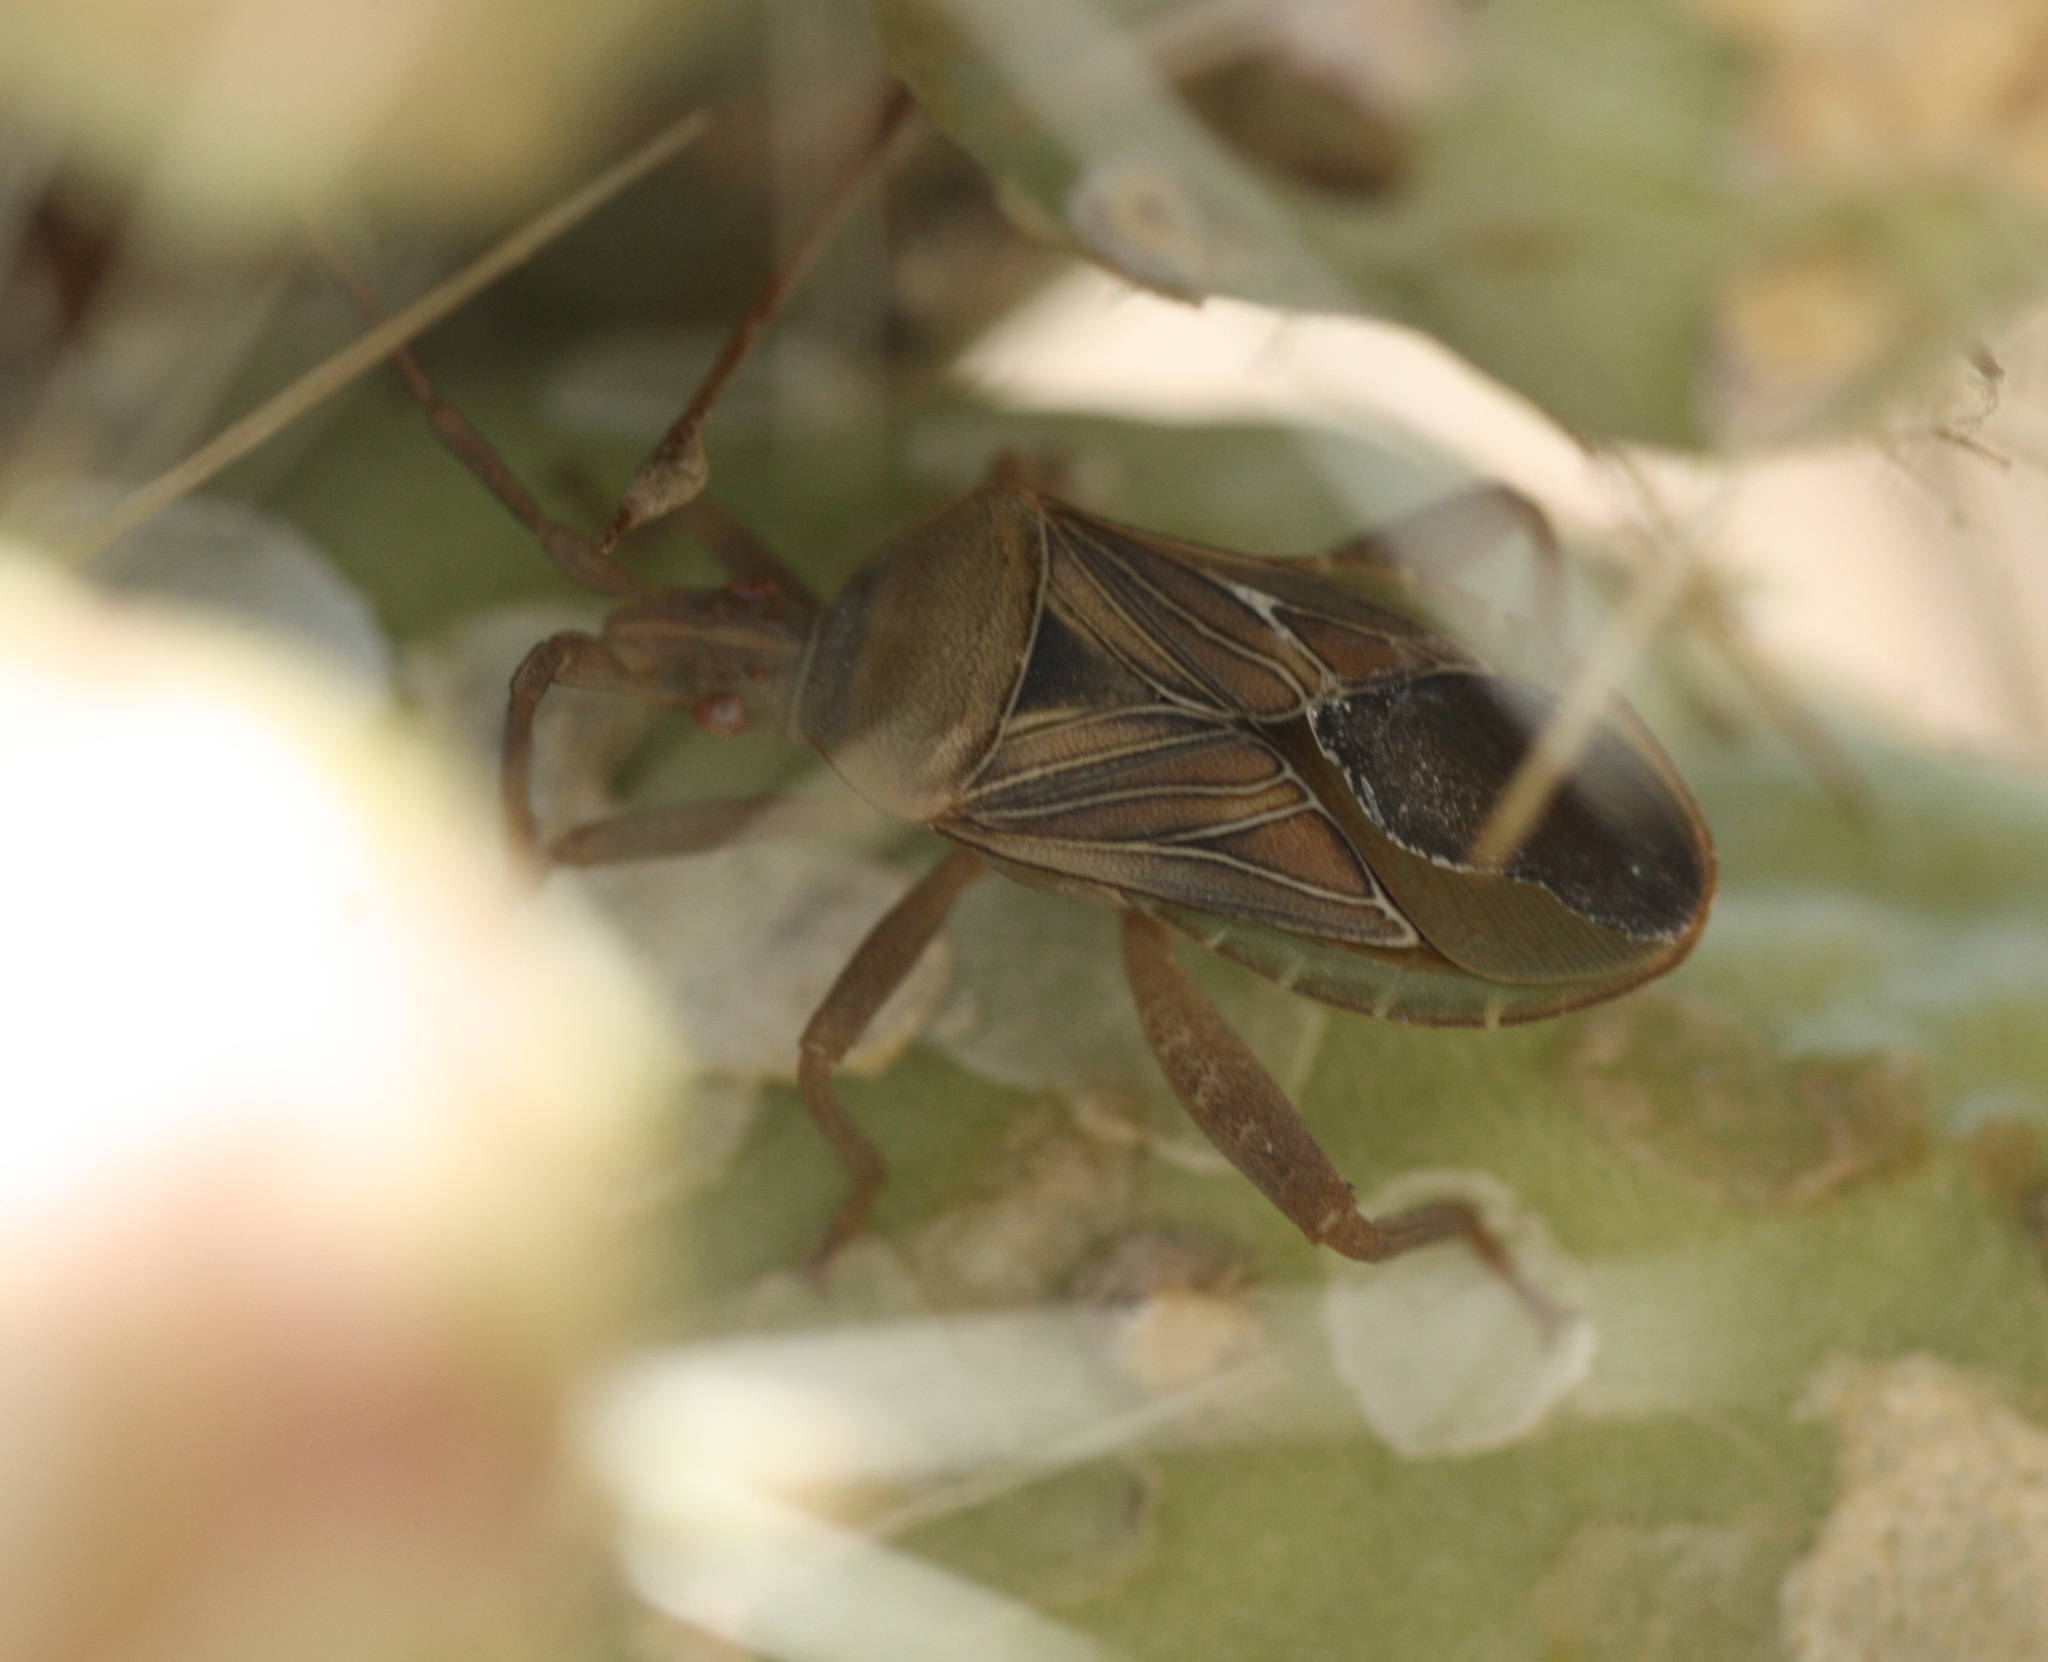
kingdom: Animalia
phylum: Arthropoda
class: Insecta
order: Hemiptera
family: Coreidae
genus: Chelinidea
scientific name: Chelinidea hunteri
